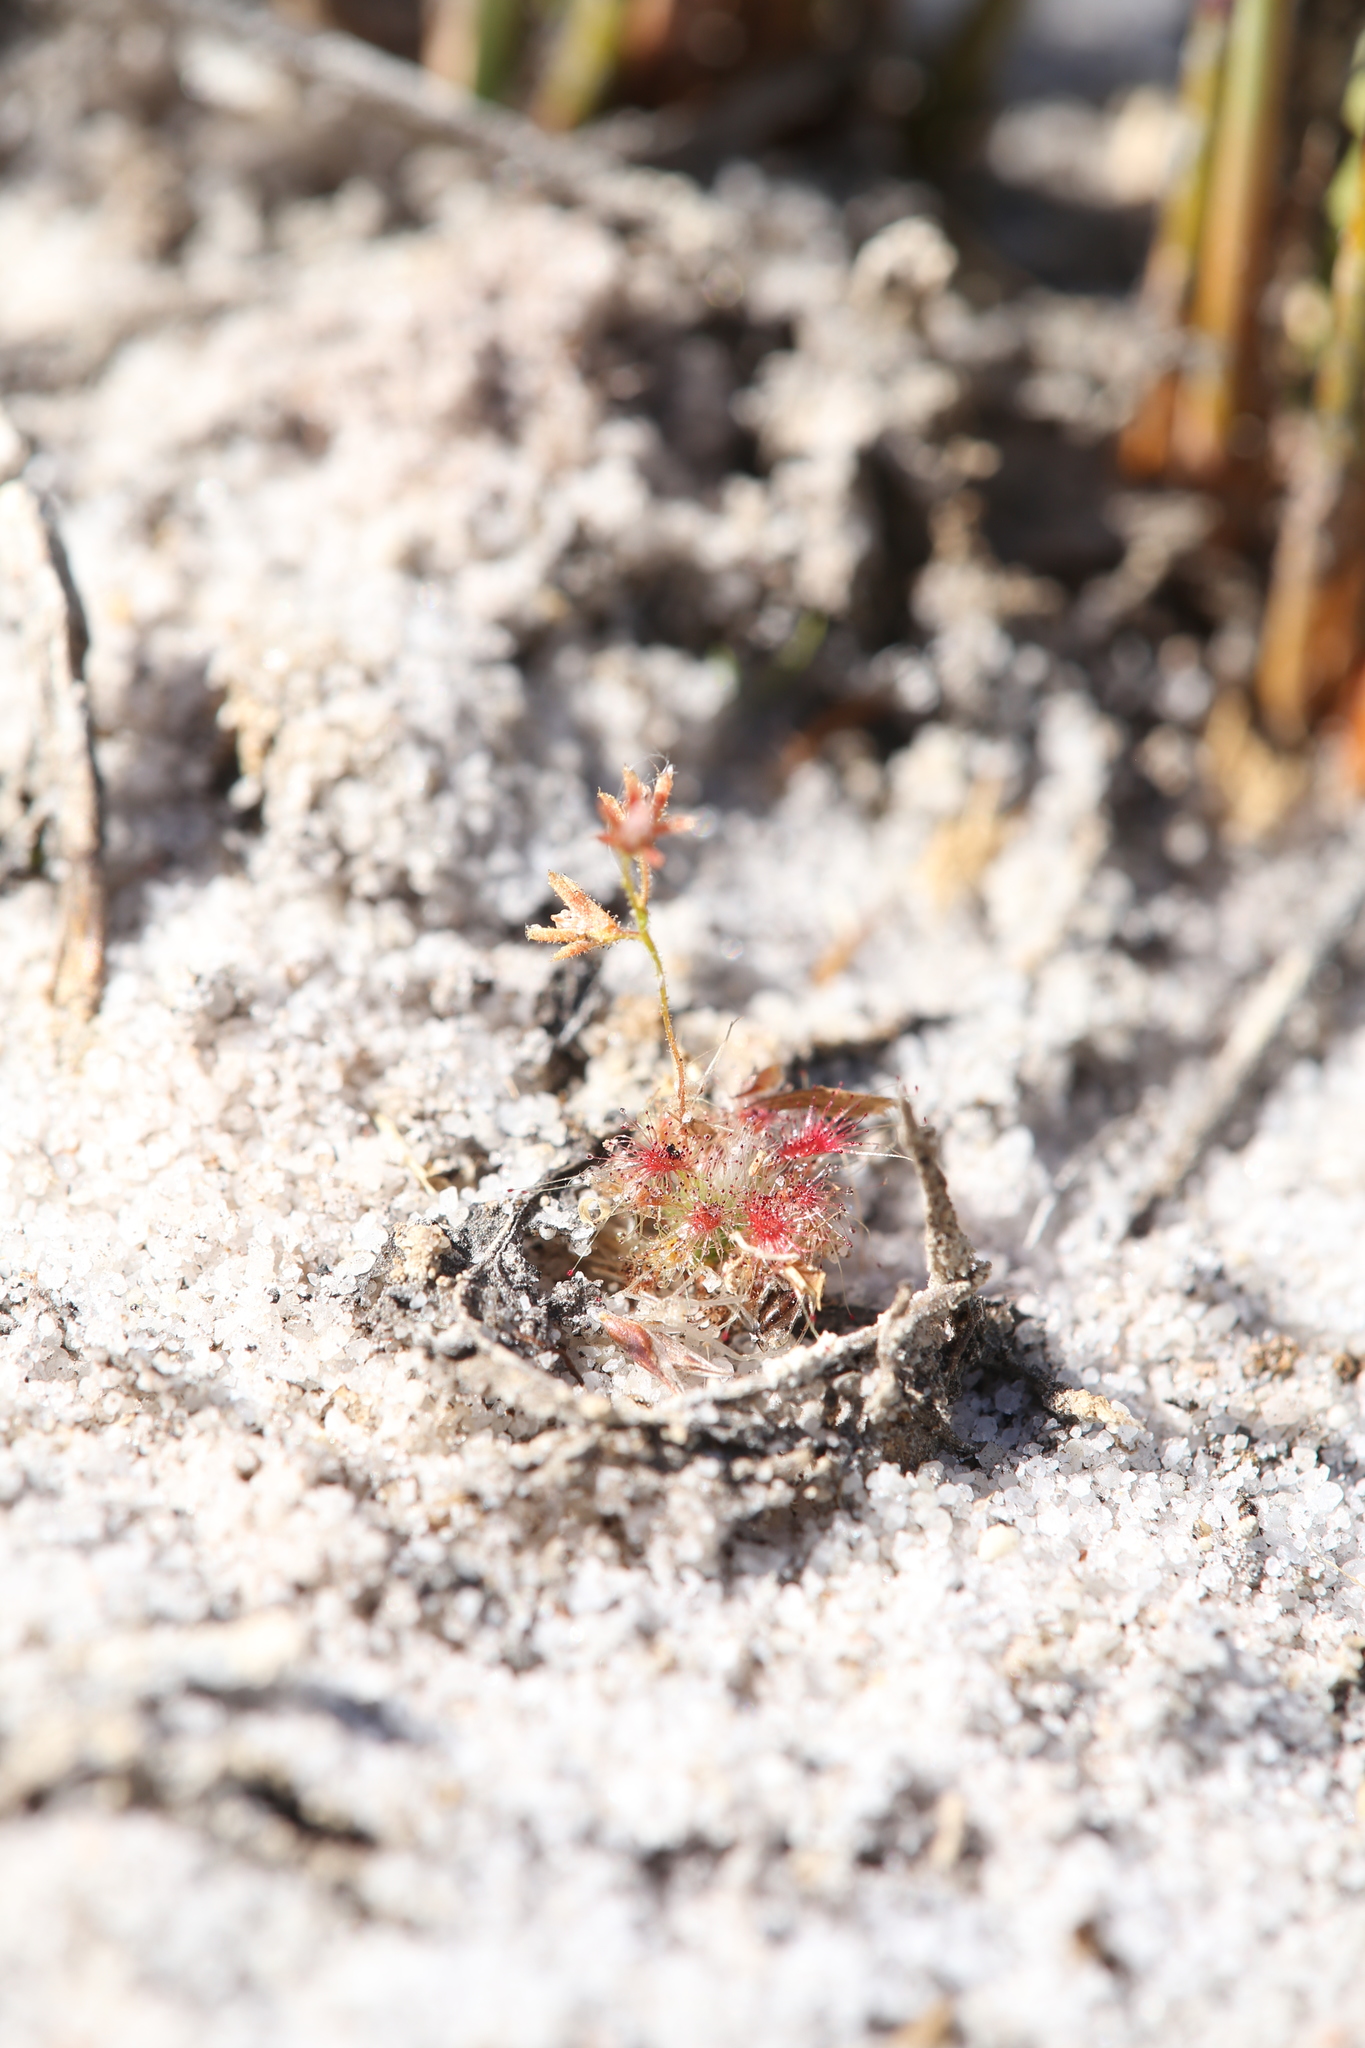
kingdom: Plantae
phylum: Tracheophyta
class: Magnoliopsida
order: Caryophyllales
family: Droseraceae
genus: Drosera
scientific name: Drosera patens
